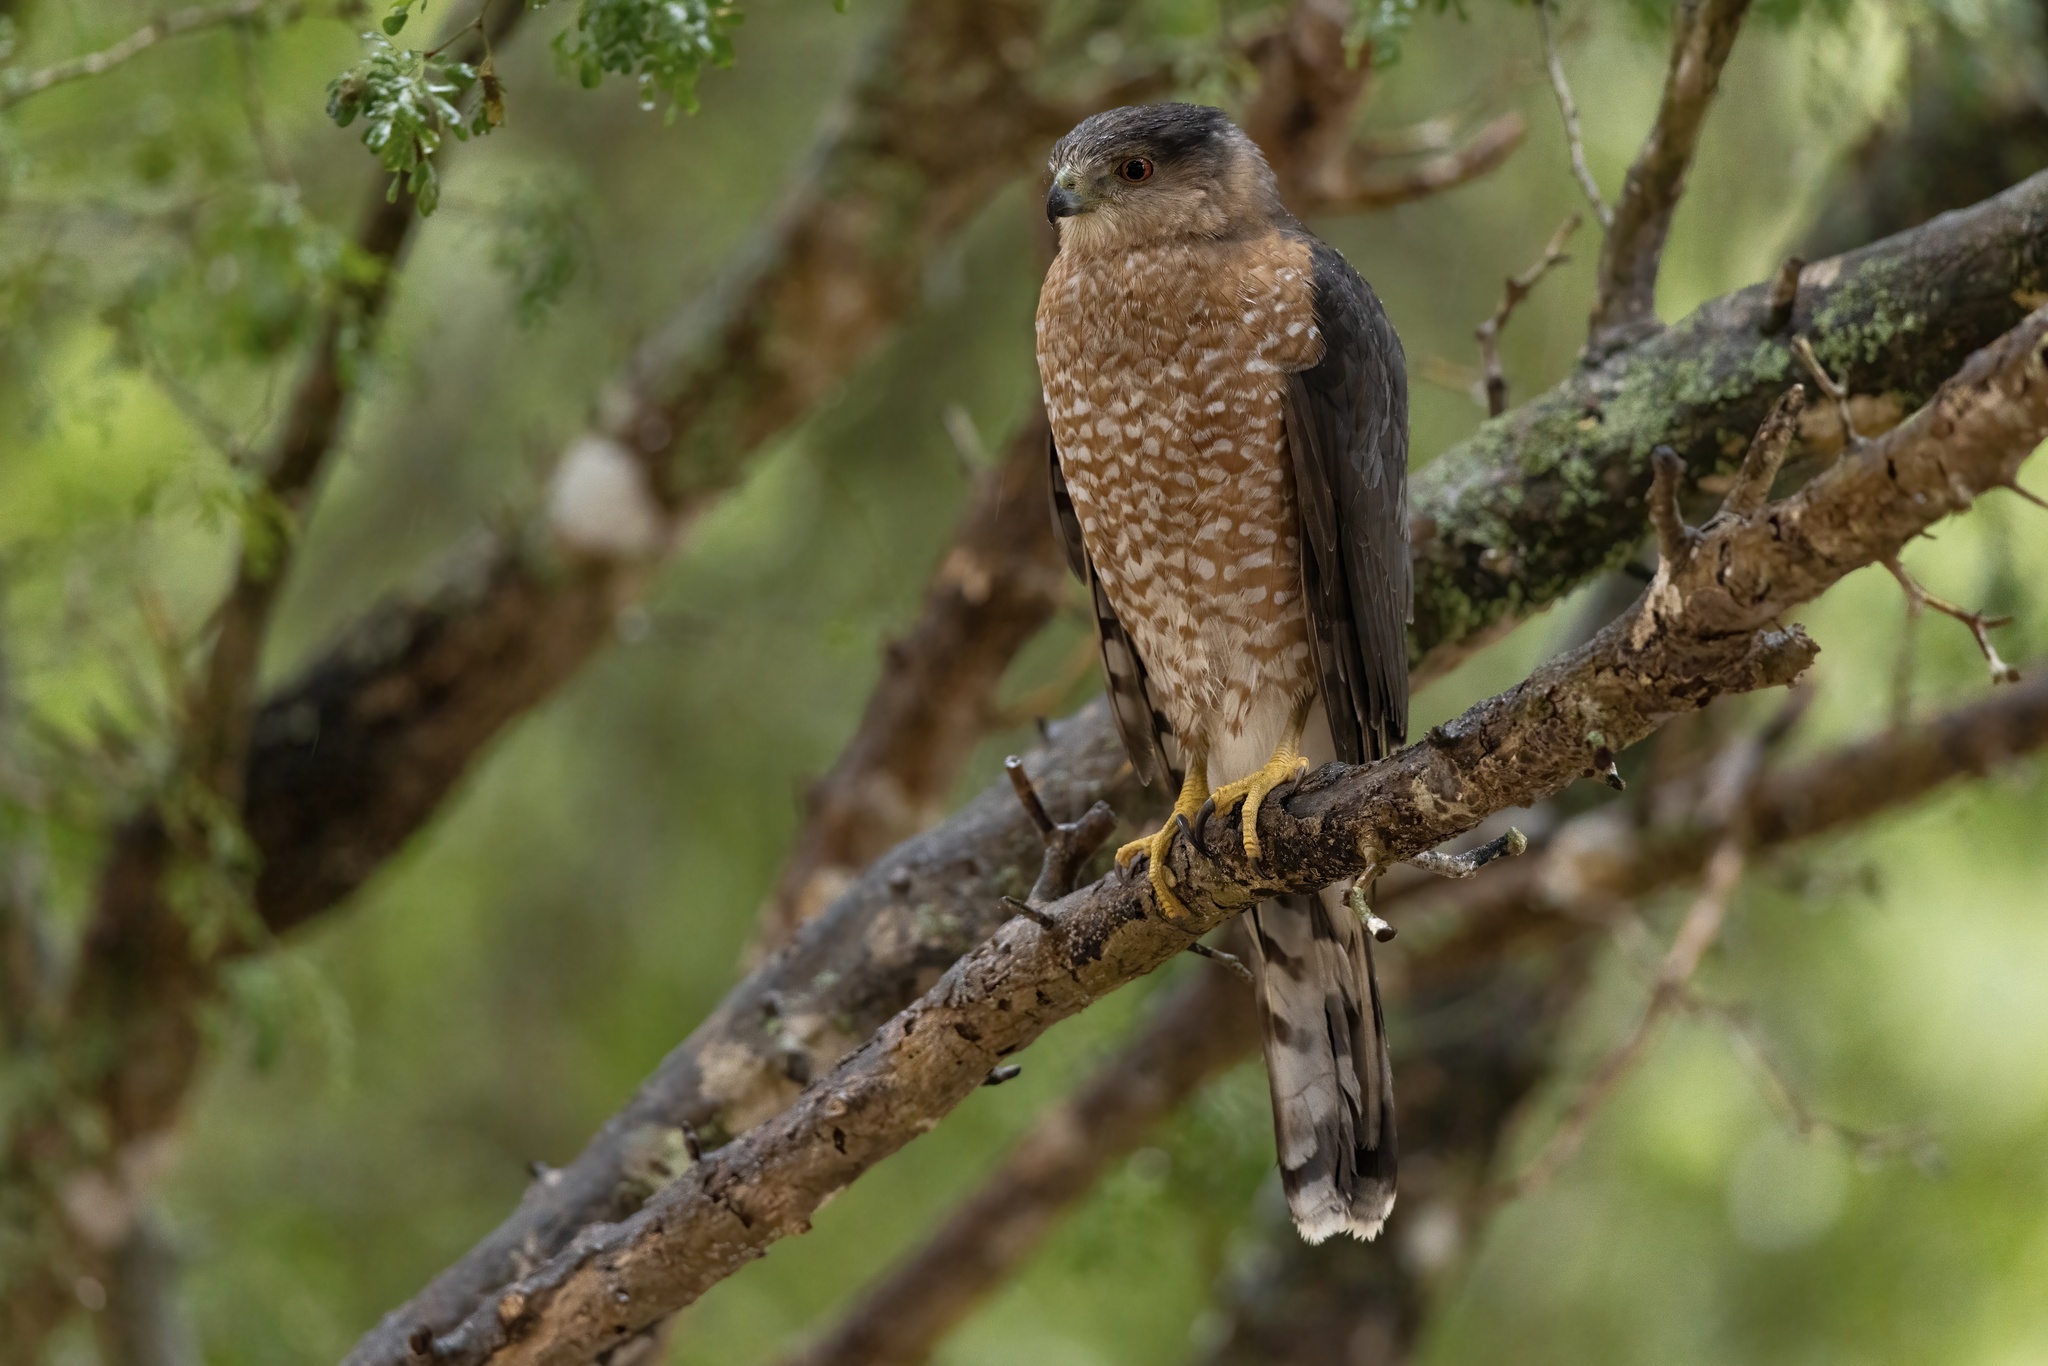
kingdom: Animalia
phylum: Chordata
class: Aves
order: Accipitriformes
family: Accipitridae
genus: Accipiter
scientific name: Accipiter cooperii
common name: Cooper's hawk
